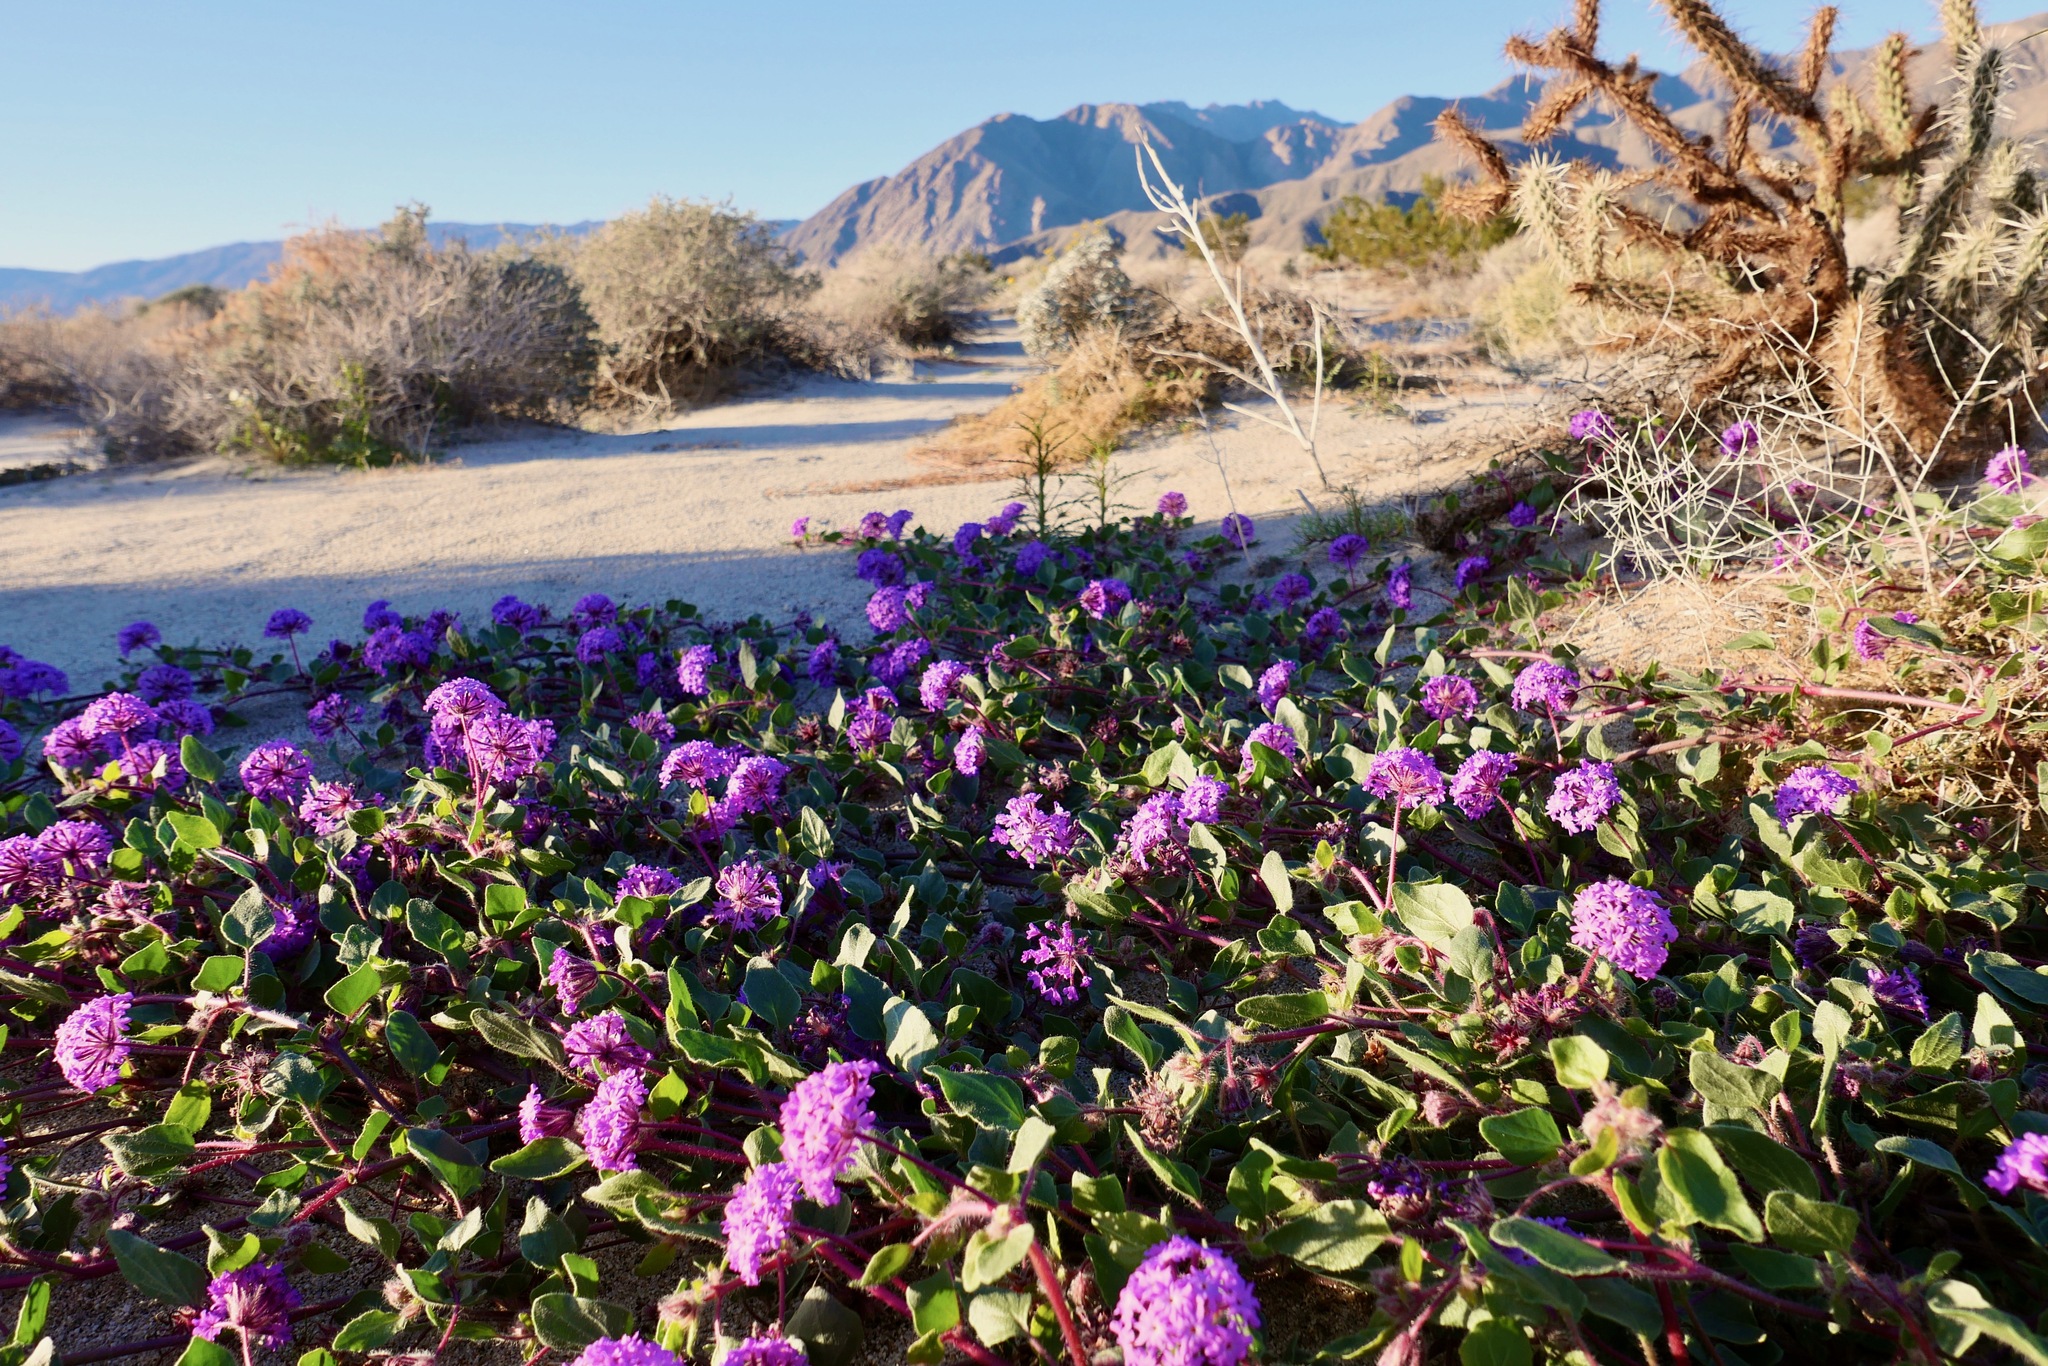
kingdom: Plantae
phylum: Tracheophyta
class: Magnoliopsida
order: Caryophyllales
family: Nyctaginaceae
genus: Abronia
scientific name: Abronia villosa
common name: Desert sand-verbena
